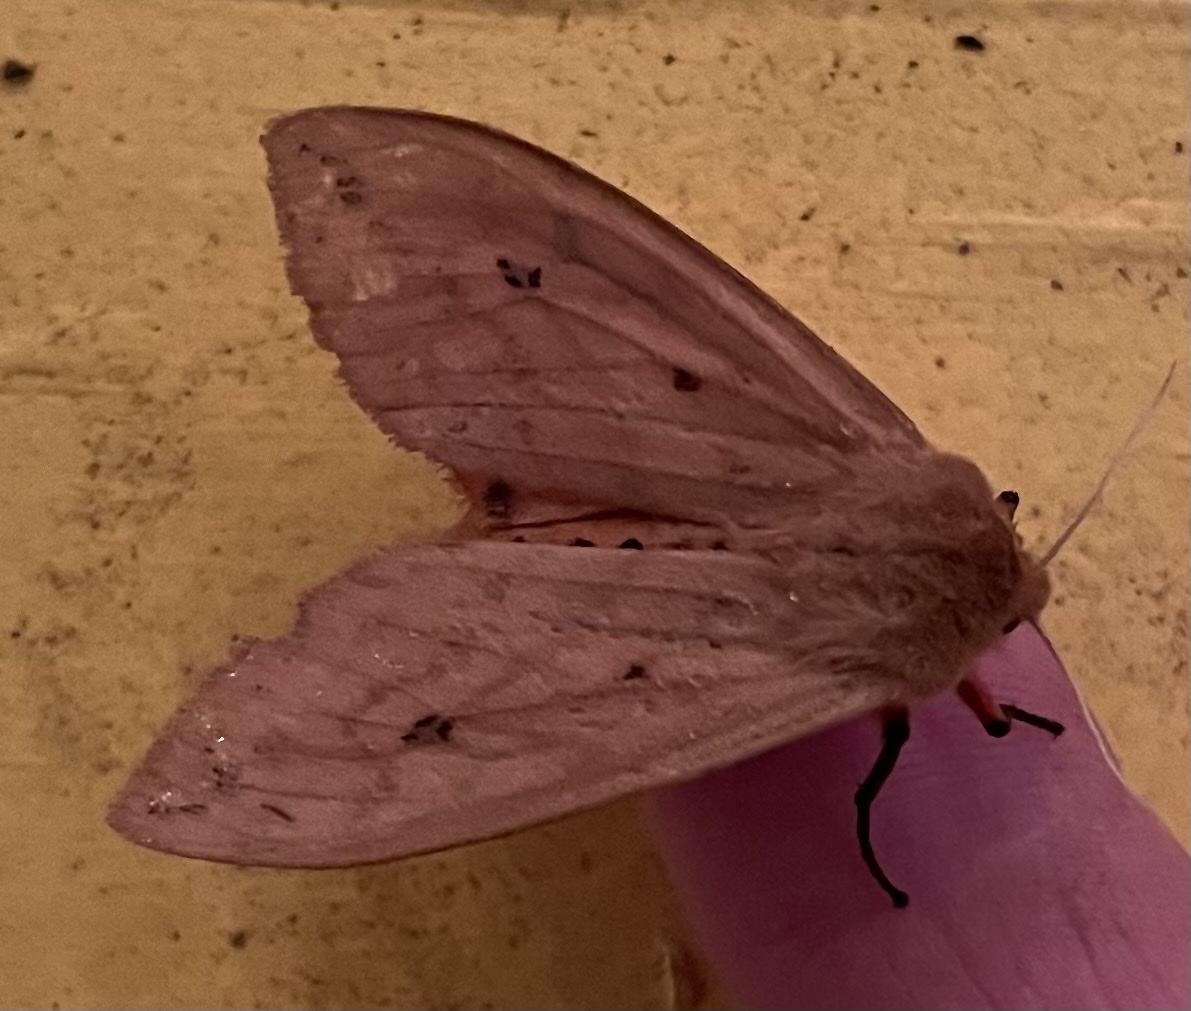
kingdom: Animalia
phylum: Arthropoda
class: Insecta
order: Lepidoptera
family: Erebidae
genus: Pyrrharctia
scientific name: Pyrrharctia isabella
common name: Isabella tiger moth
